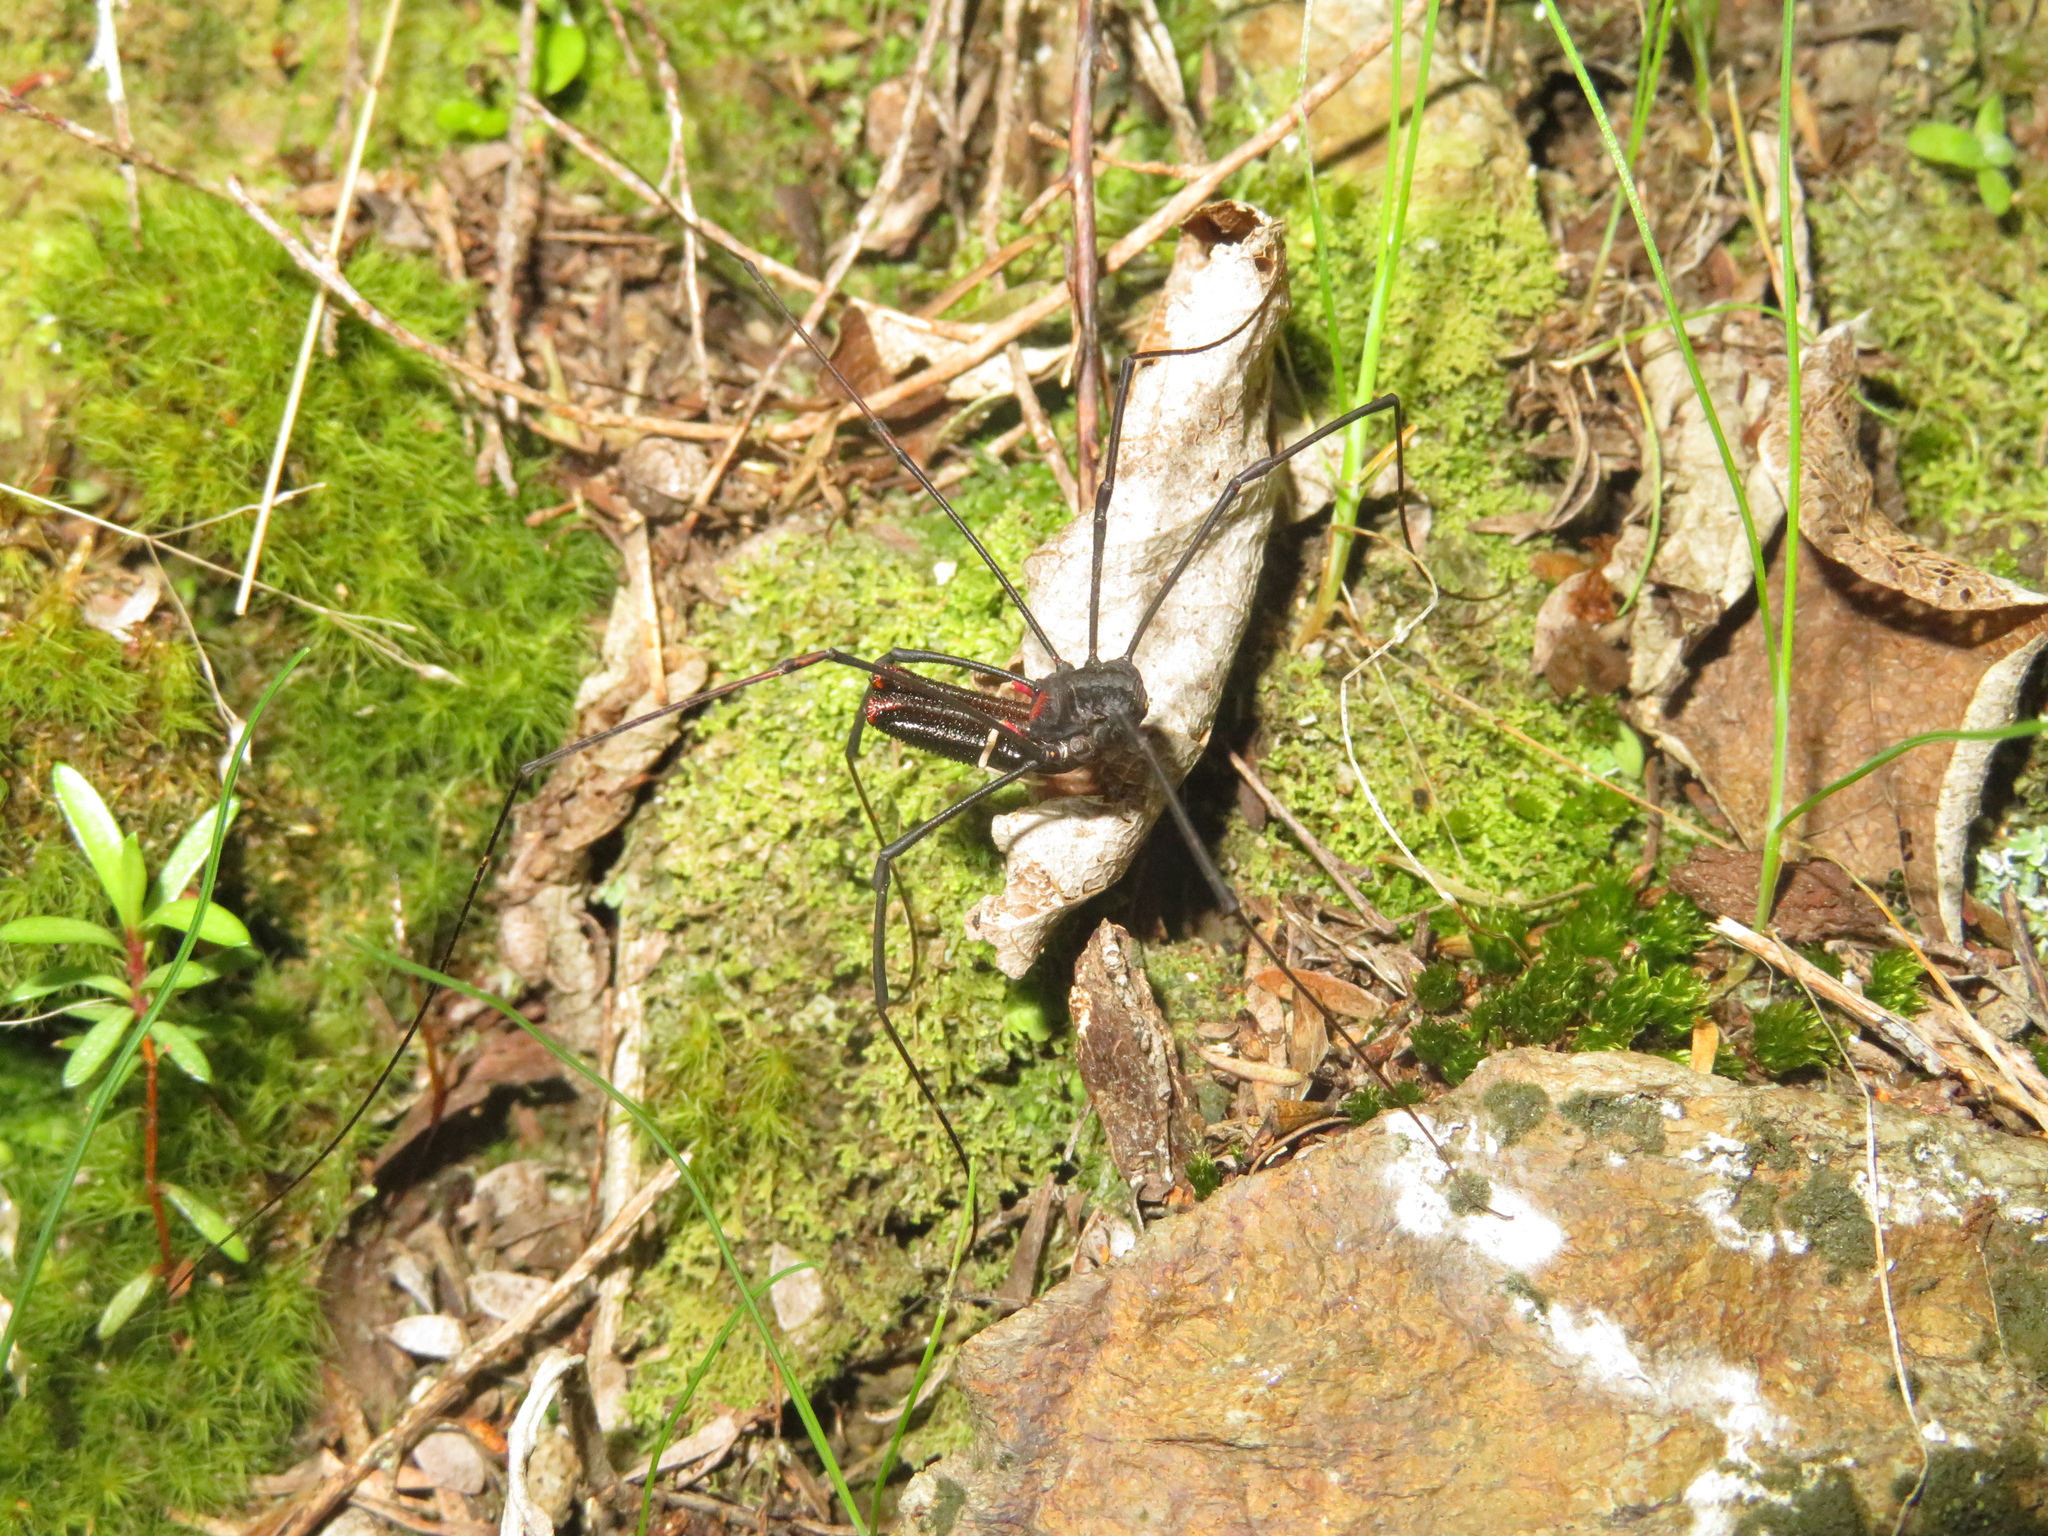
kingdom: Animalia
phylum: Arthropoda
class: Arachnida
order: Opiliones
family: Neopilionidae
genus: Forsteropsalis
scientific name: Forsteropsalis inconstans
